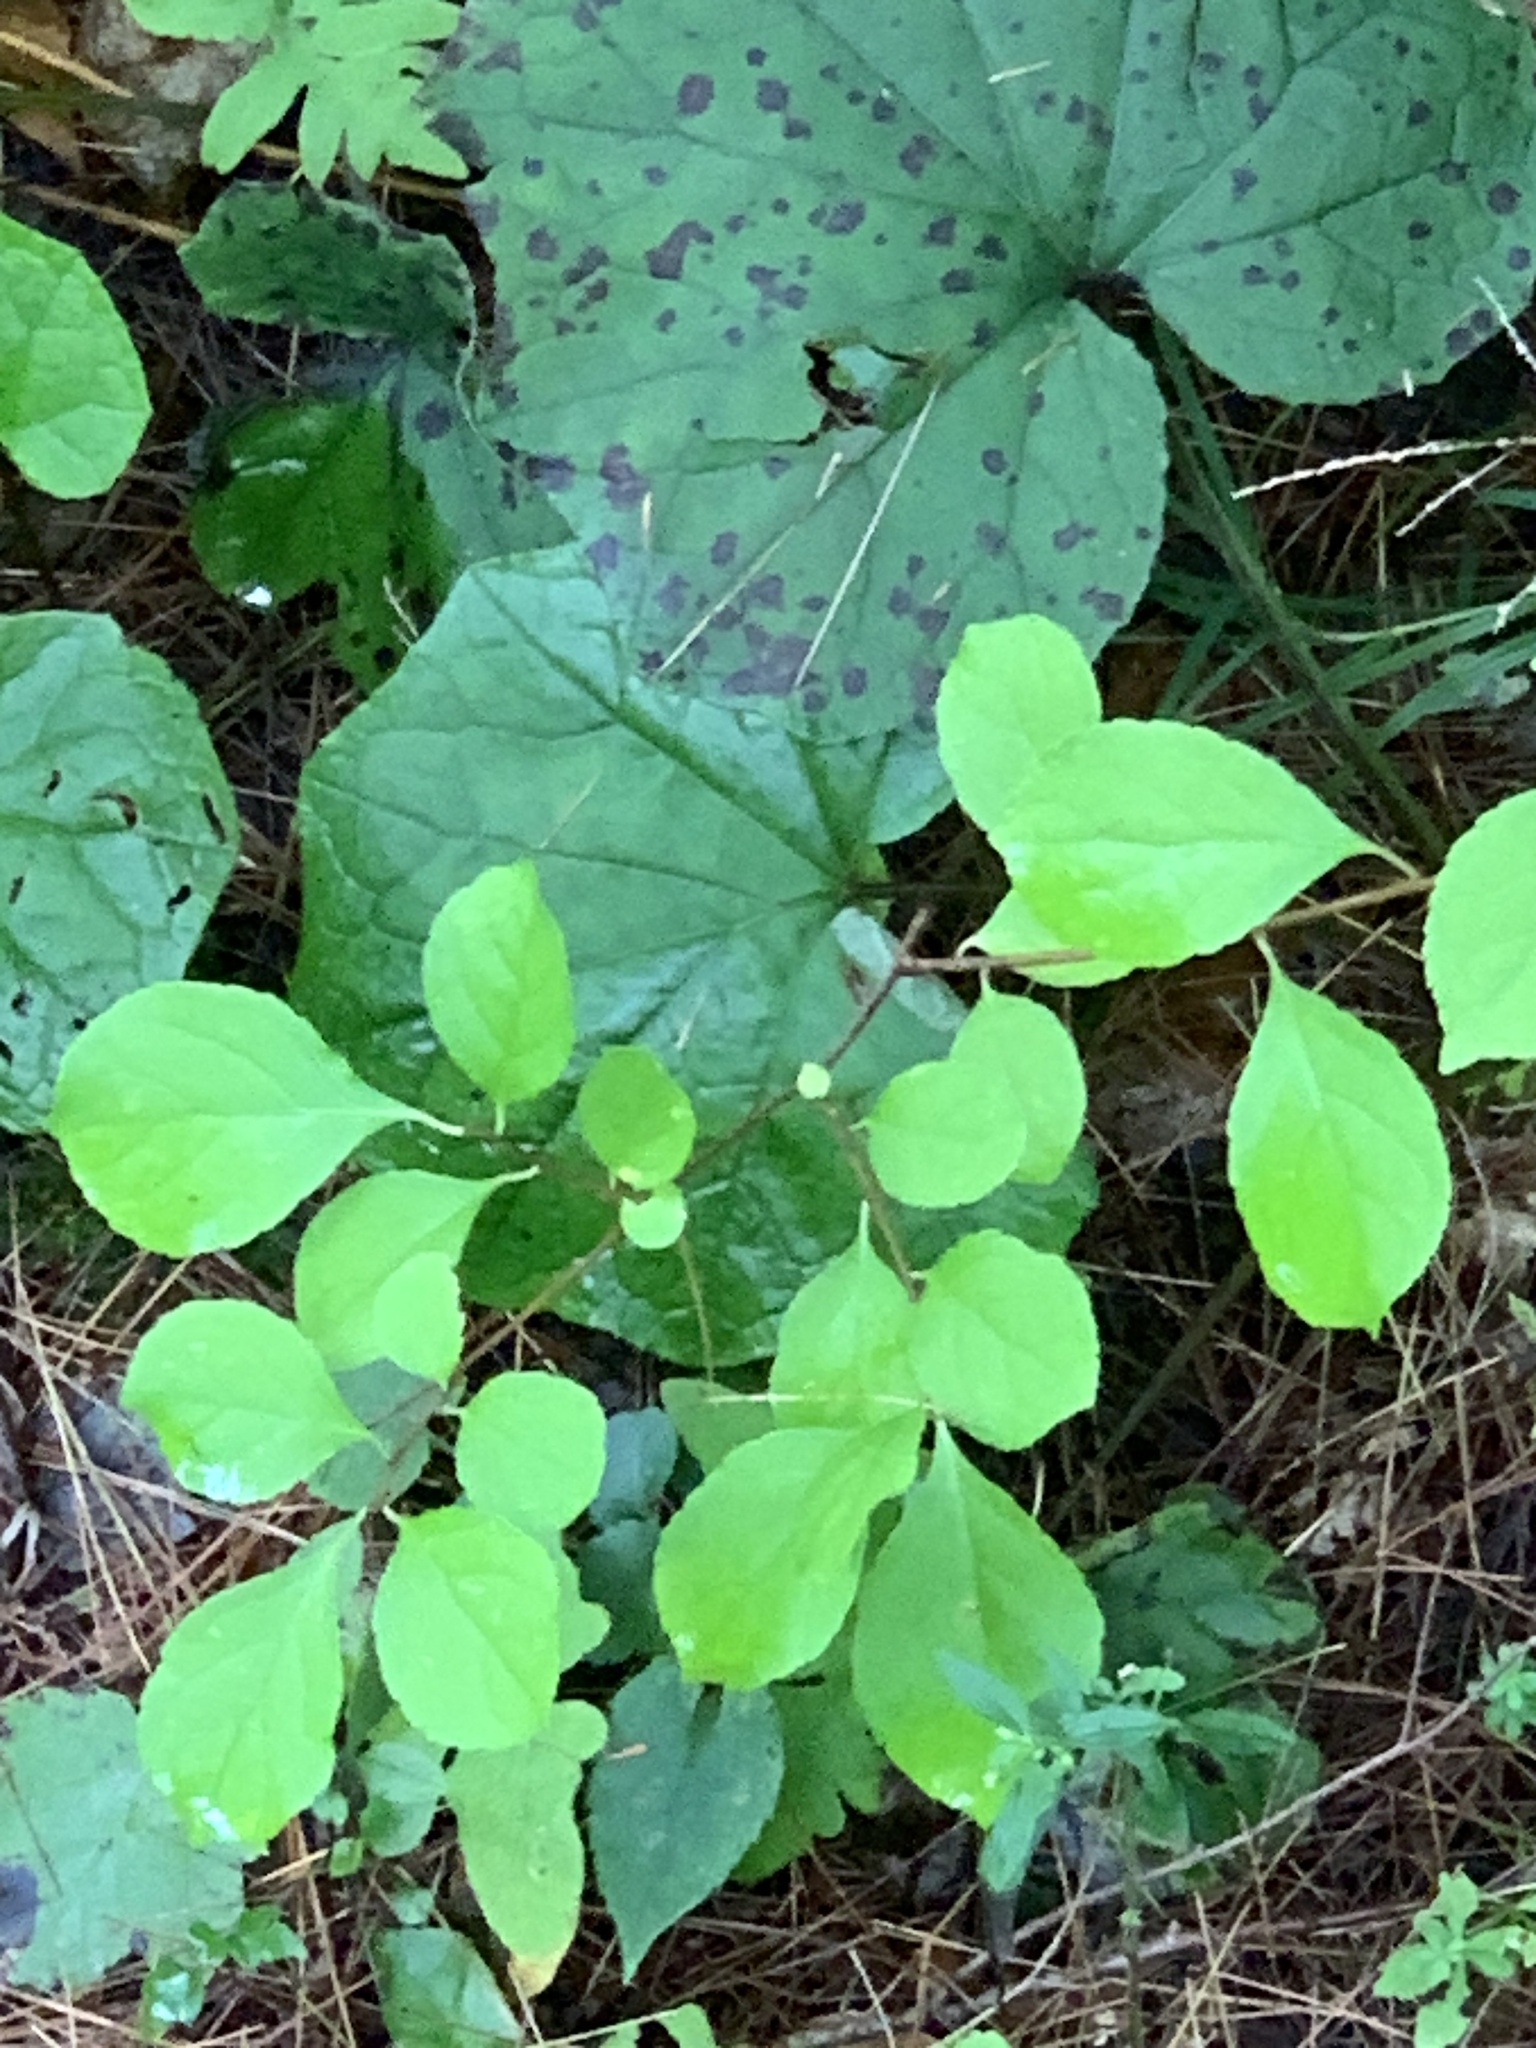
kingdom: Plantae
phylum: Tracheophyta
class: Magnoliopsida
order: Celastrales
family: Celastraceae
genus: Celastrus
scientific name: Celastrus orbiculatus
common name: Oriental bittersweet
